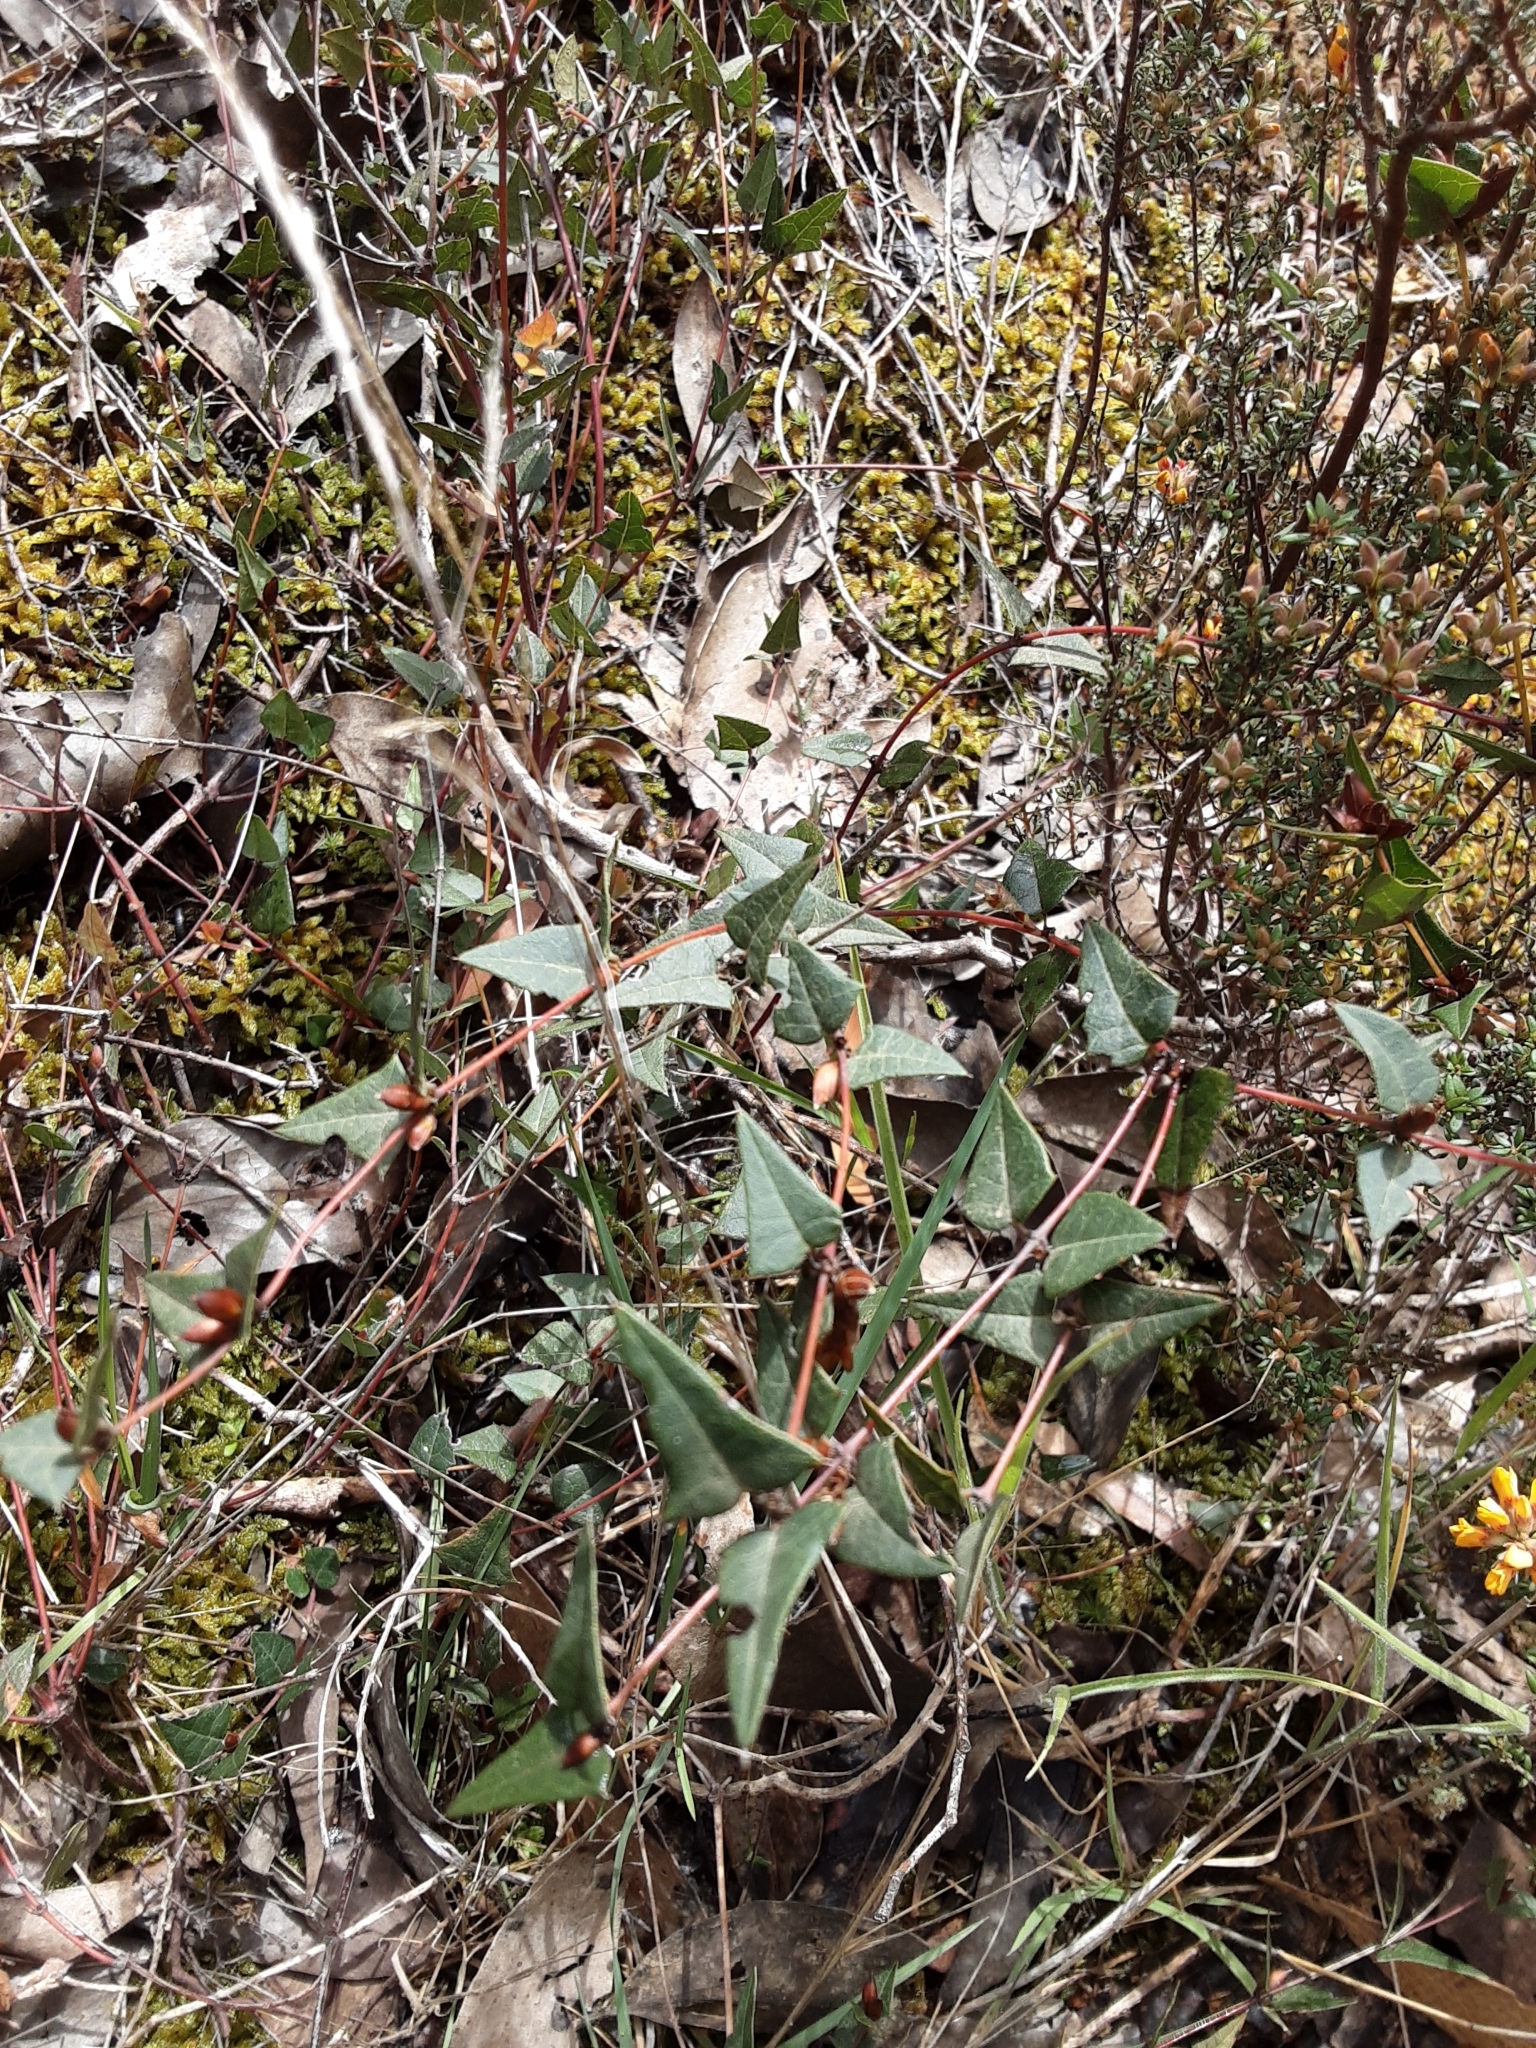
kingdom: Plantae
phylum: Tracheophyta
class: Magnoliopsida
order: Fabales
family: Fabaceae
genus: Platylobium
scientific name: Platylobium obtusangulum
